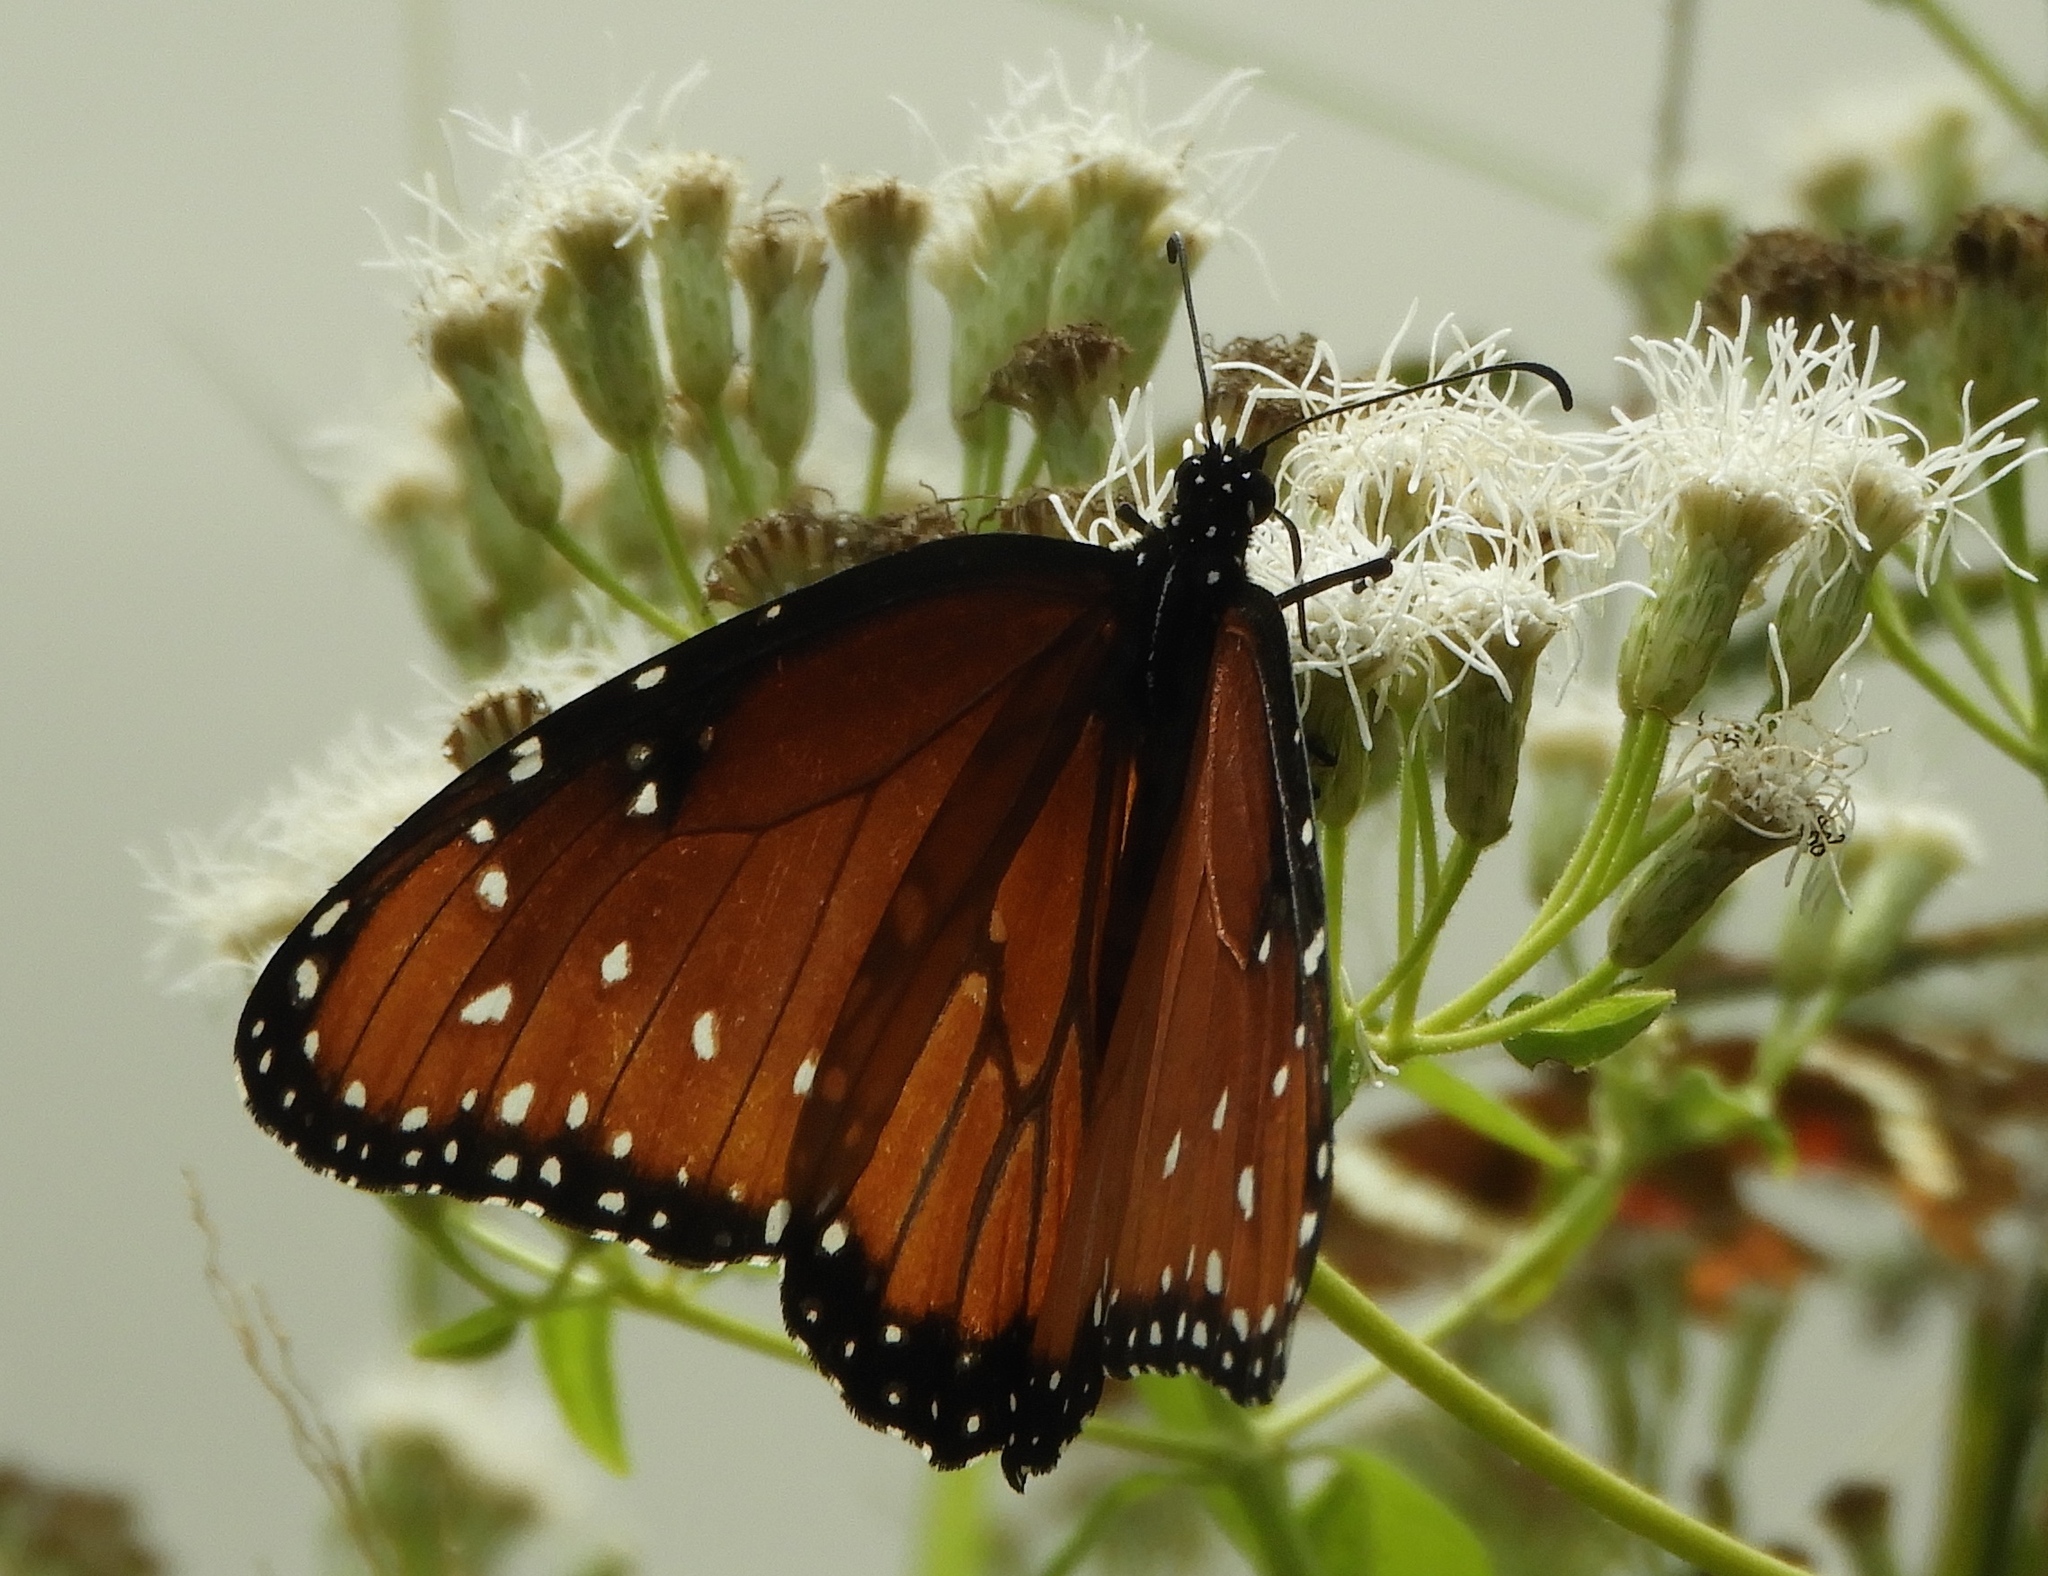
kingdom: Animalia
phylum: Arthropoda
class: Insecta
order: Lepidoptera
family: Nymphalidae
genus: Danaus
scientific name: Danaus gilippus
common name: Queen
